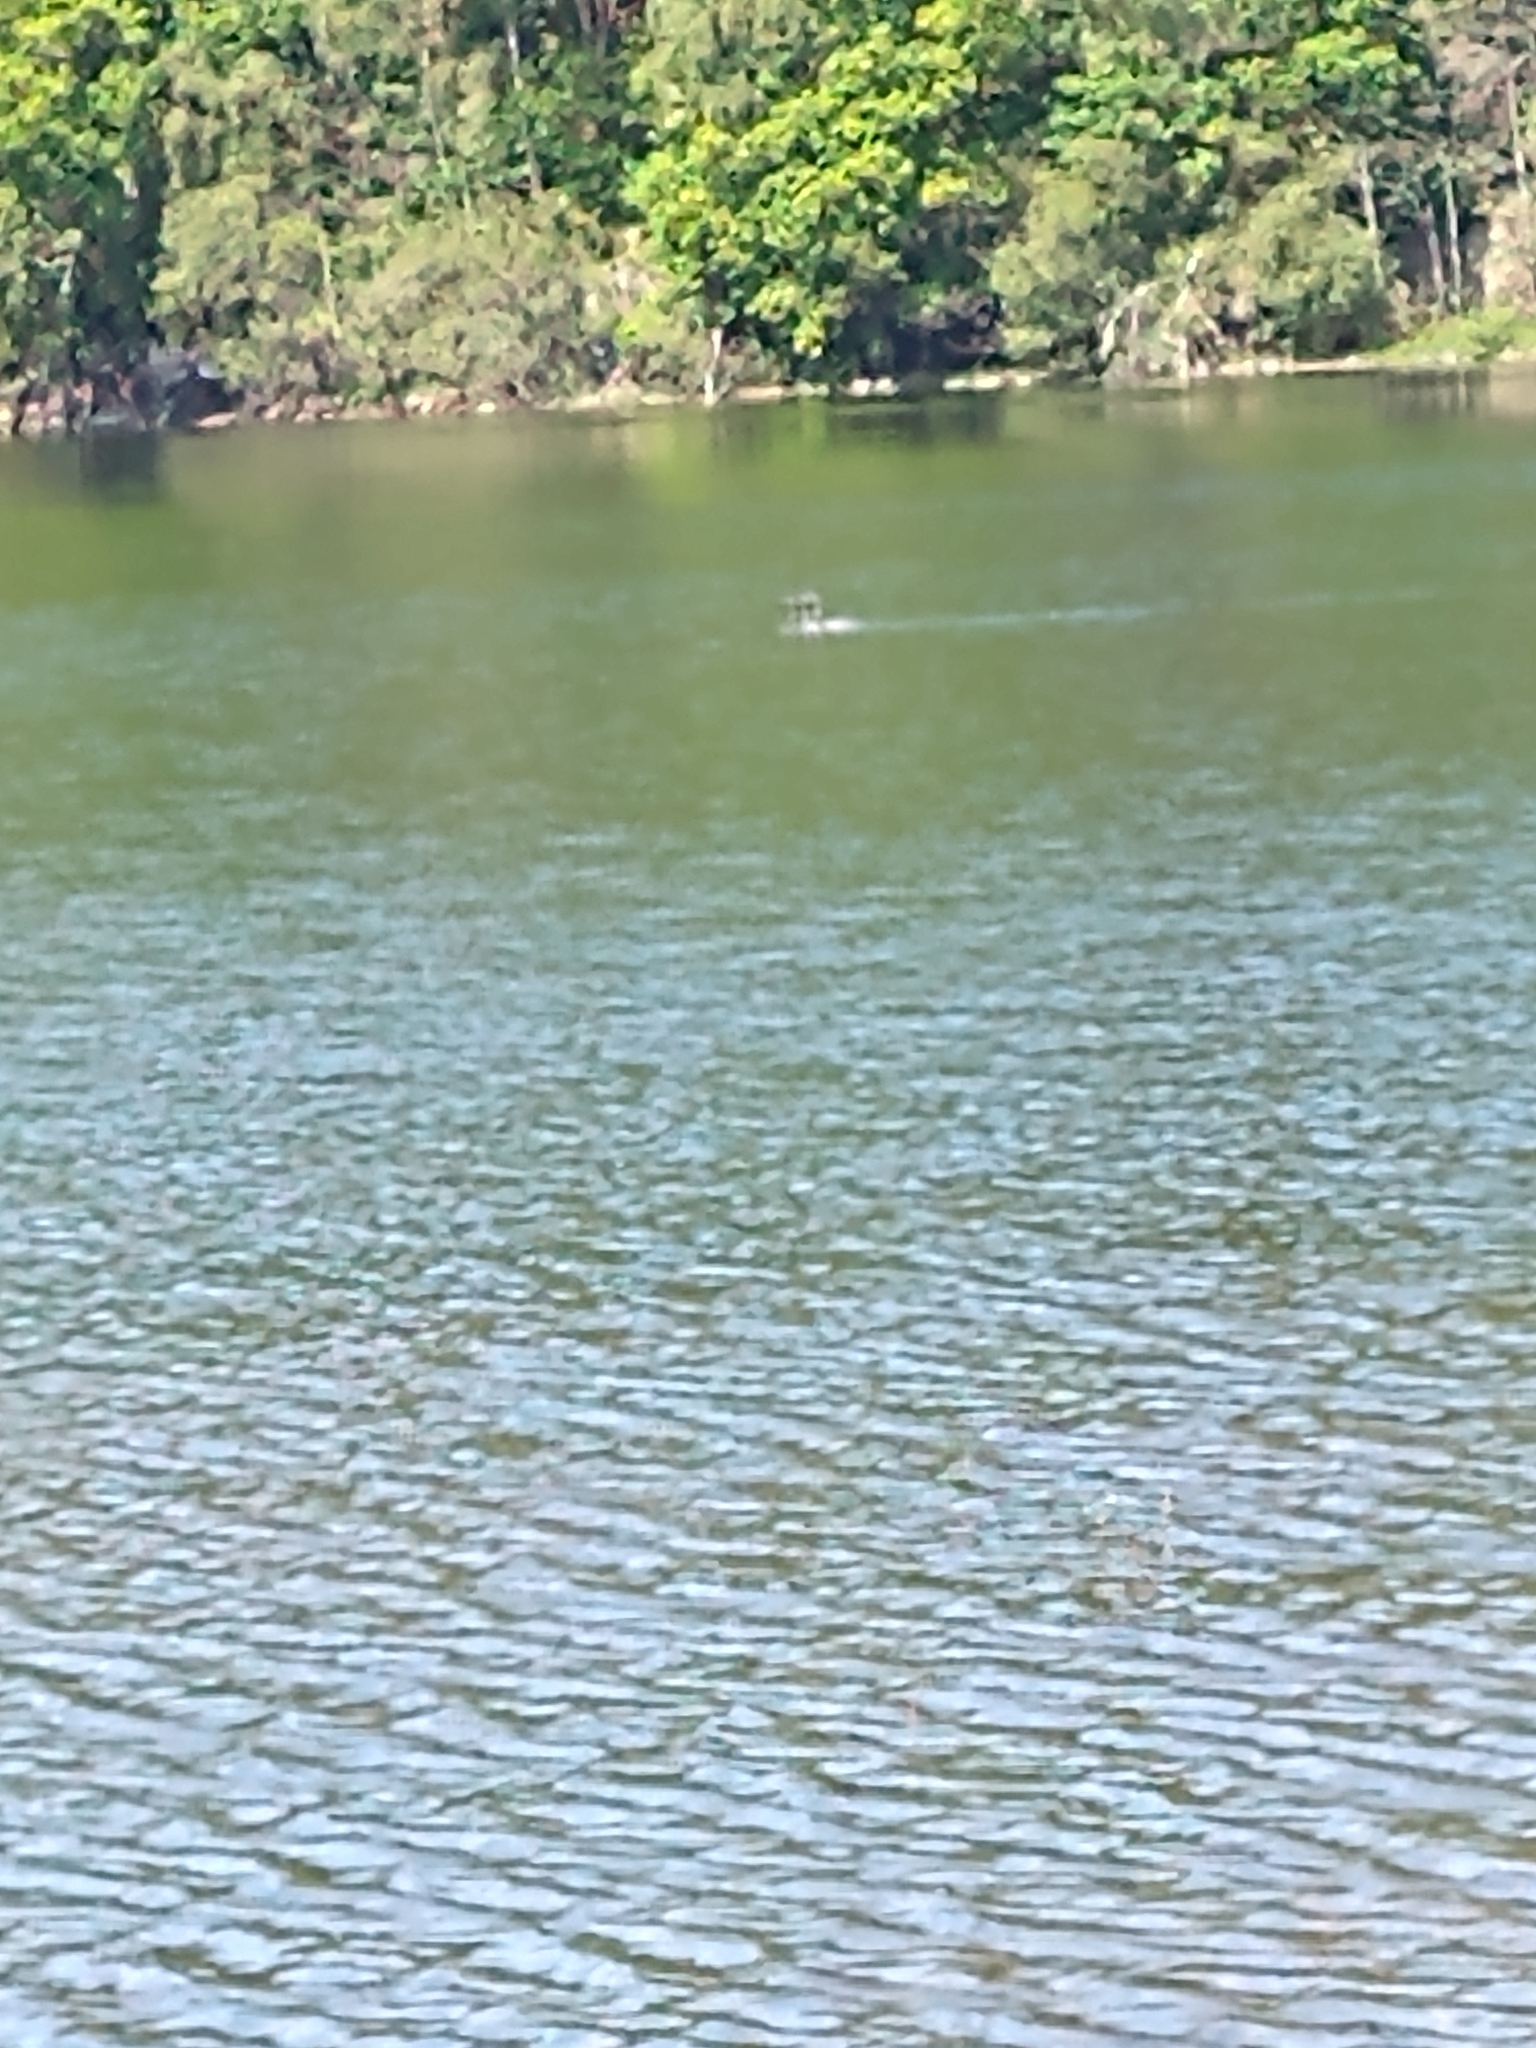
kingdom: Animalia
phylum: Chordata
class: Aves
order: Gaviiformes
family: Gaviidae
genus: Gavia
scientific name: Gavia arctica
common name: Black-throated loon
